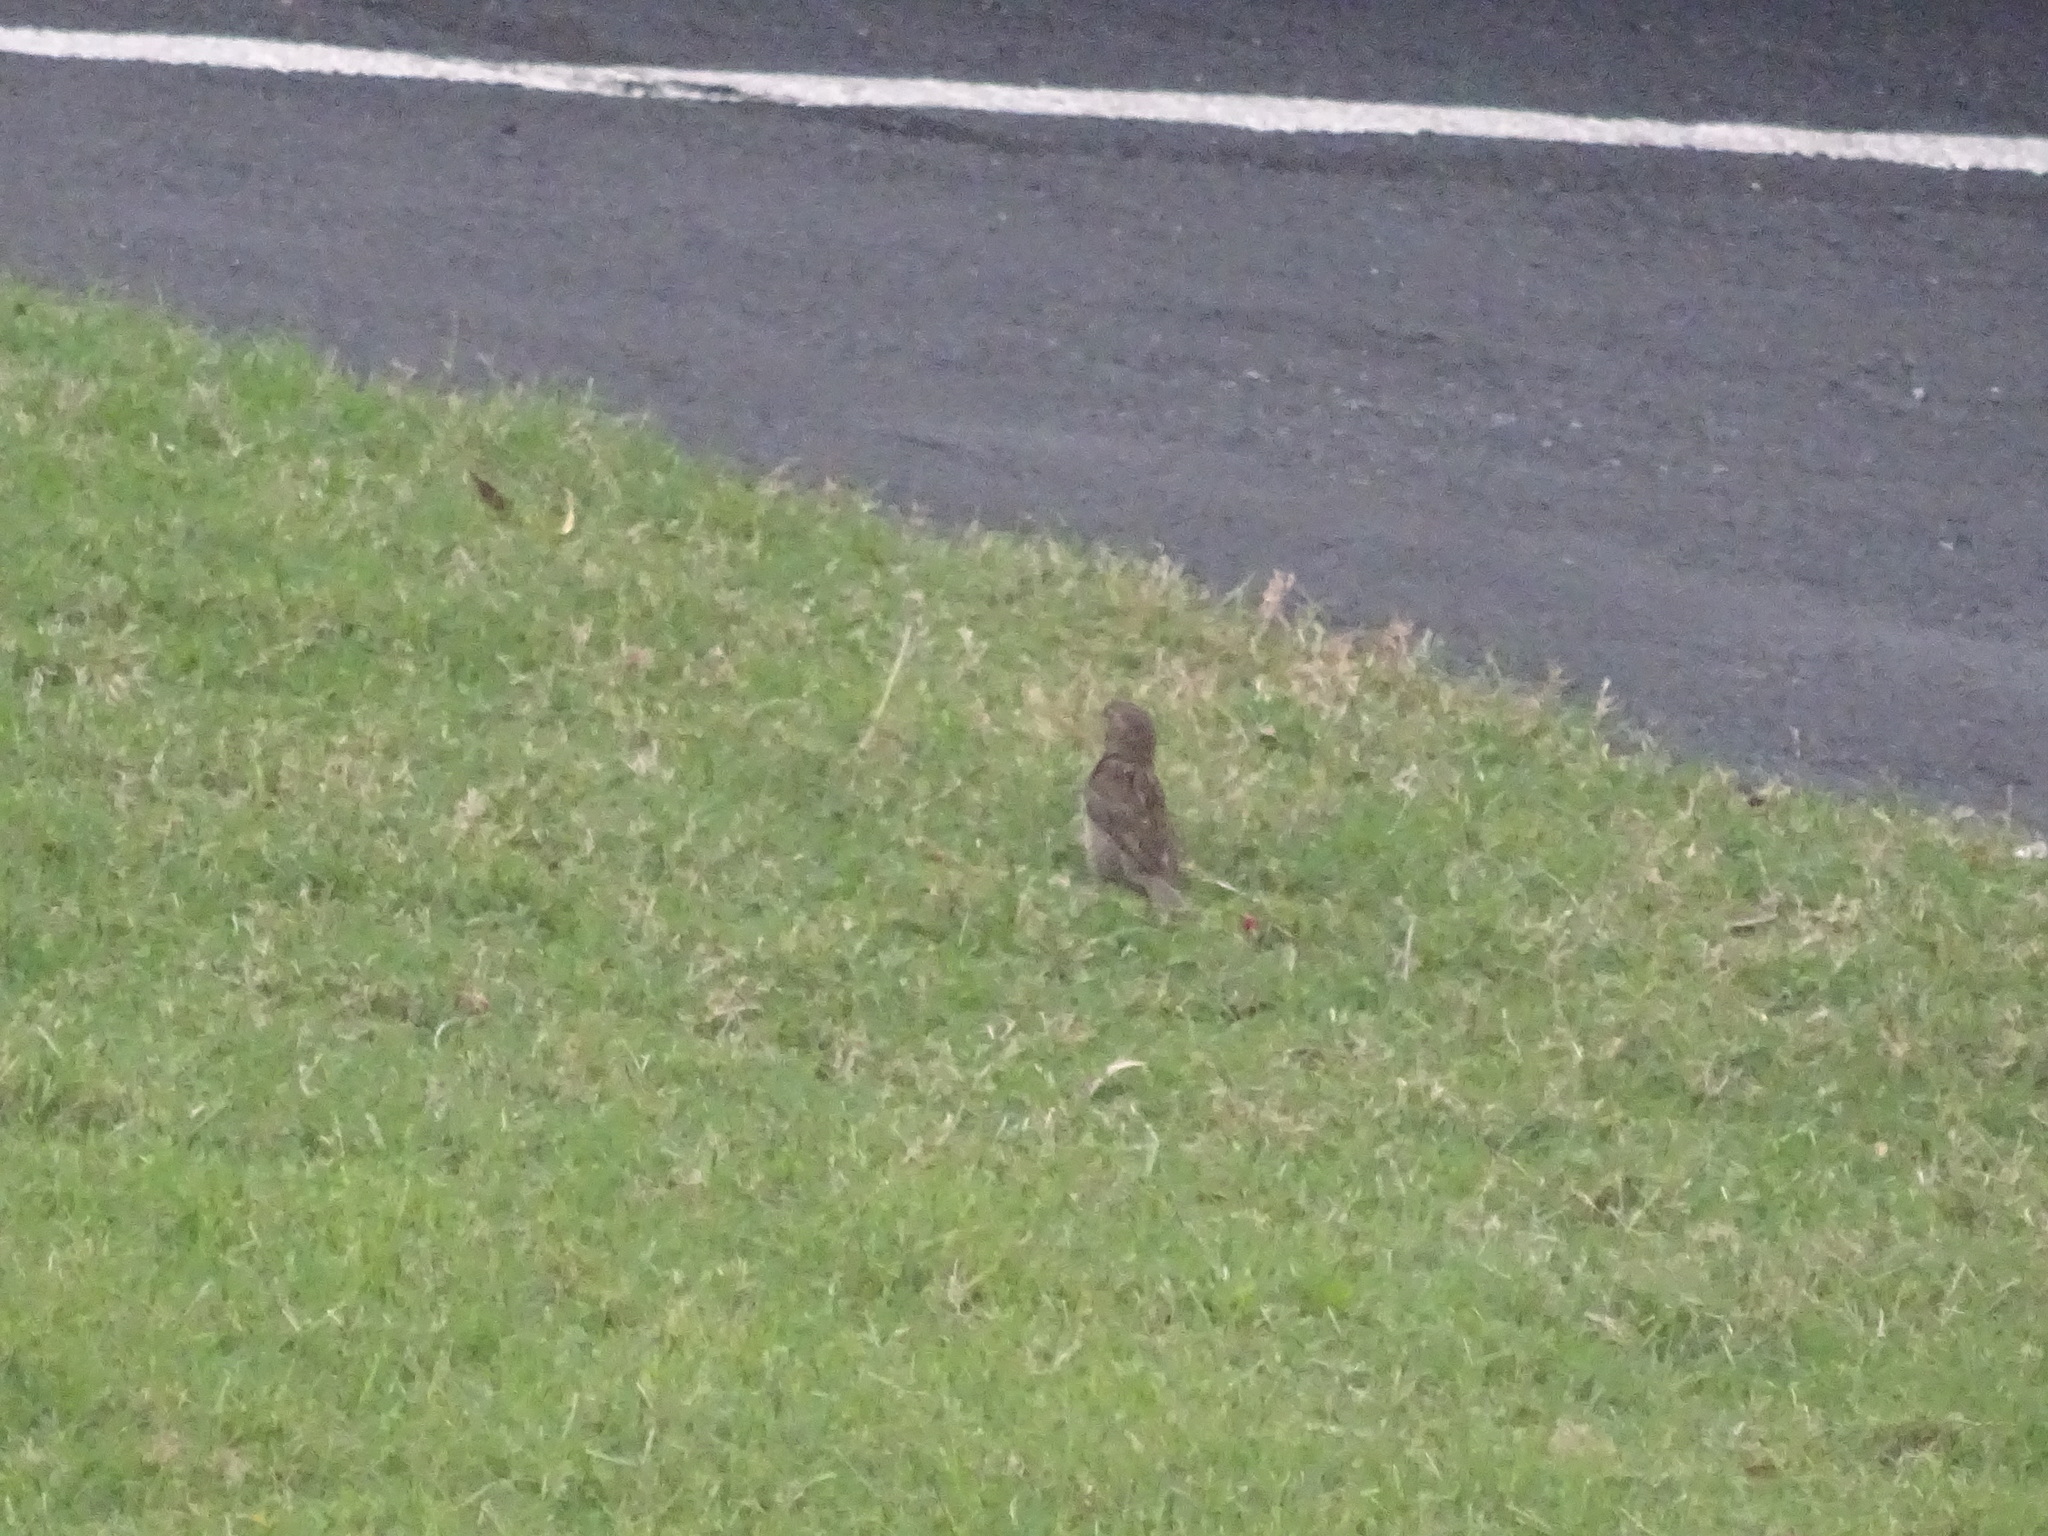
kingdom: Animalia
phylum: Chordata
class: Aves
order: Passeriformes
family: Passeridae
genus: Passer
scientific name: Passer domesticus
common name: House sparrow
